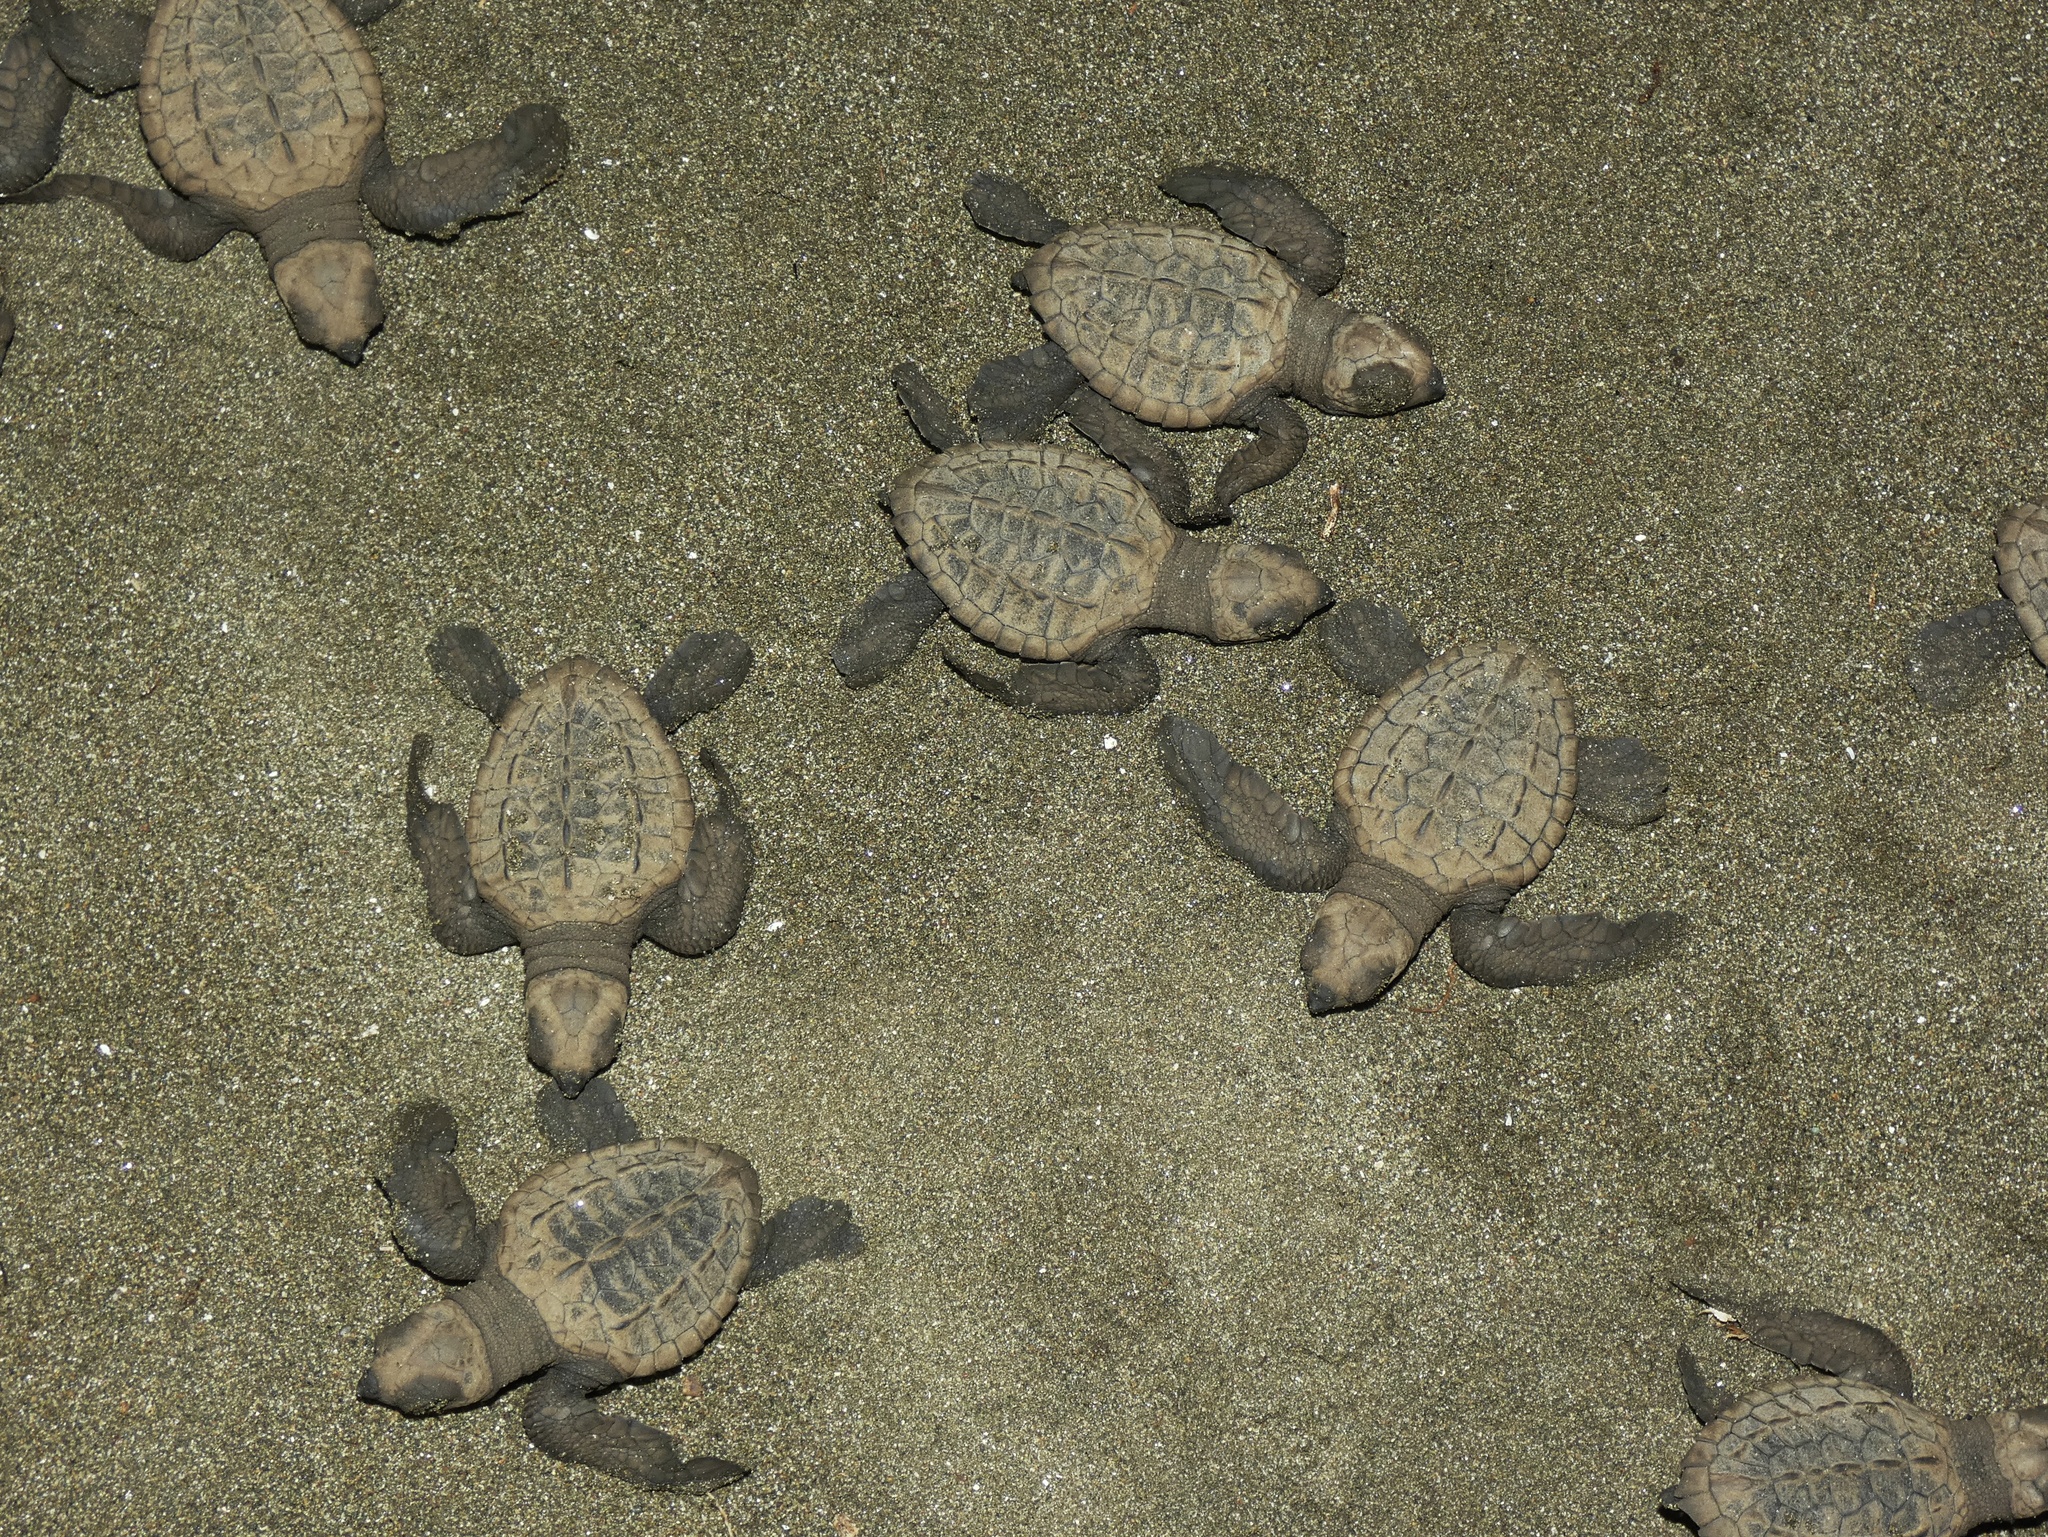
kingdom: Animalia
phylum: Chordata
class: Testudines
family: Cheloniidae
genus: Lepidochelys
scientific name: Lepidochelys olivacea
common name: Olive ridley
